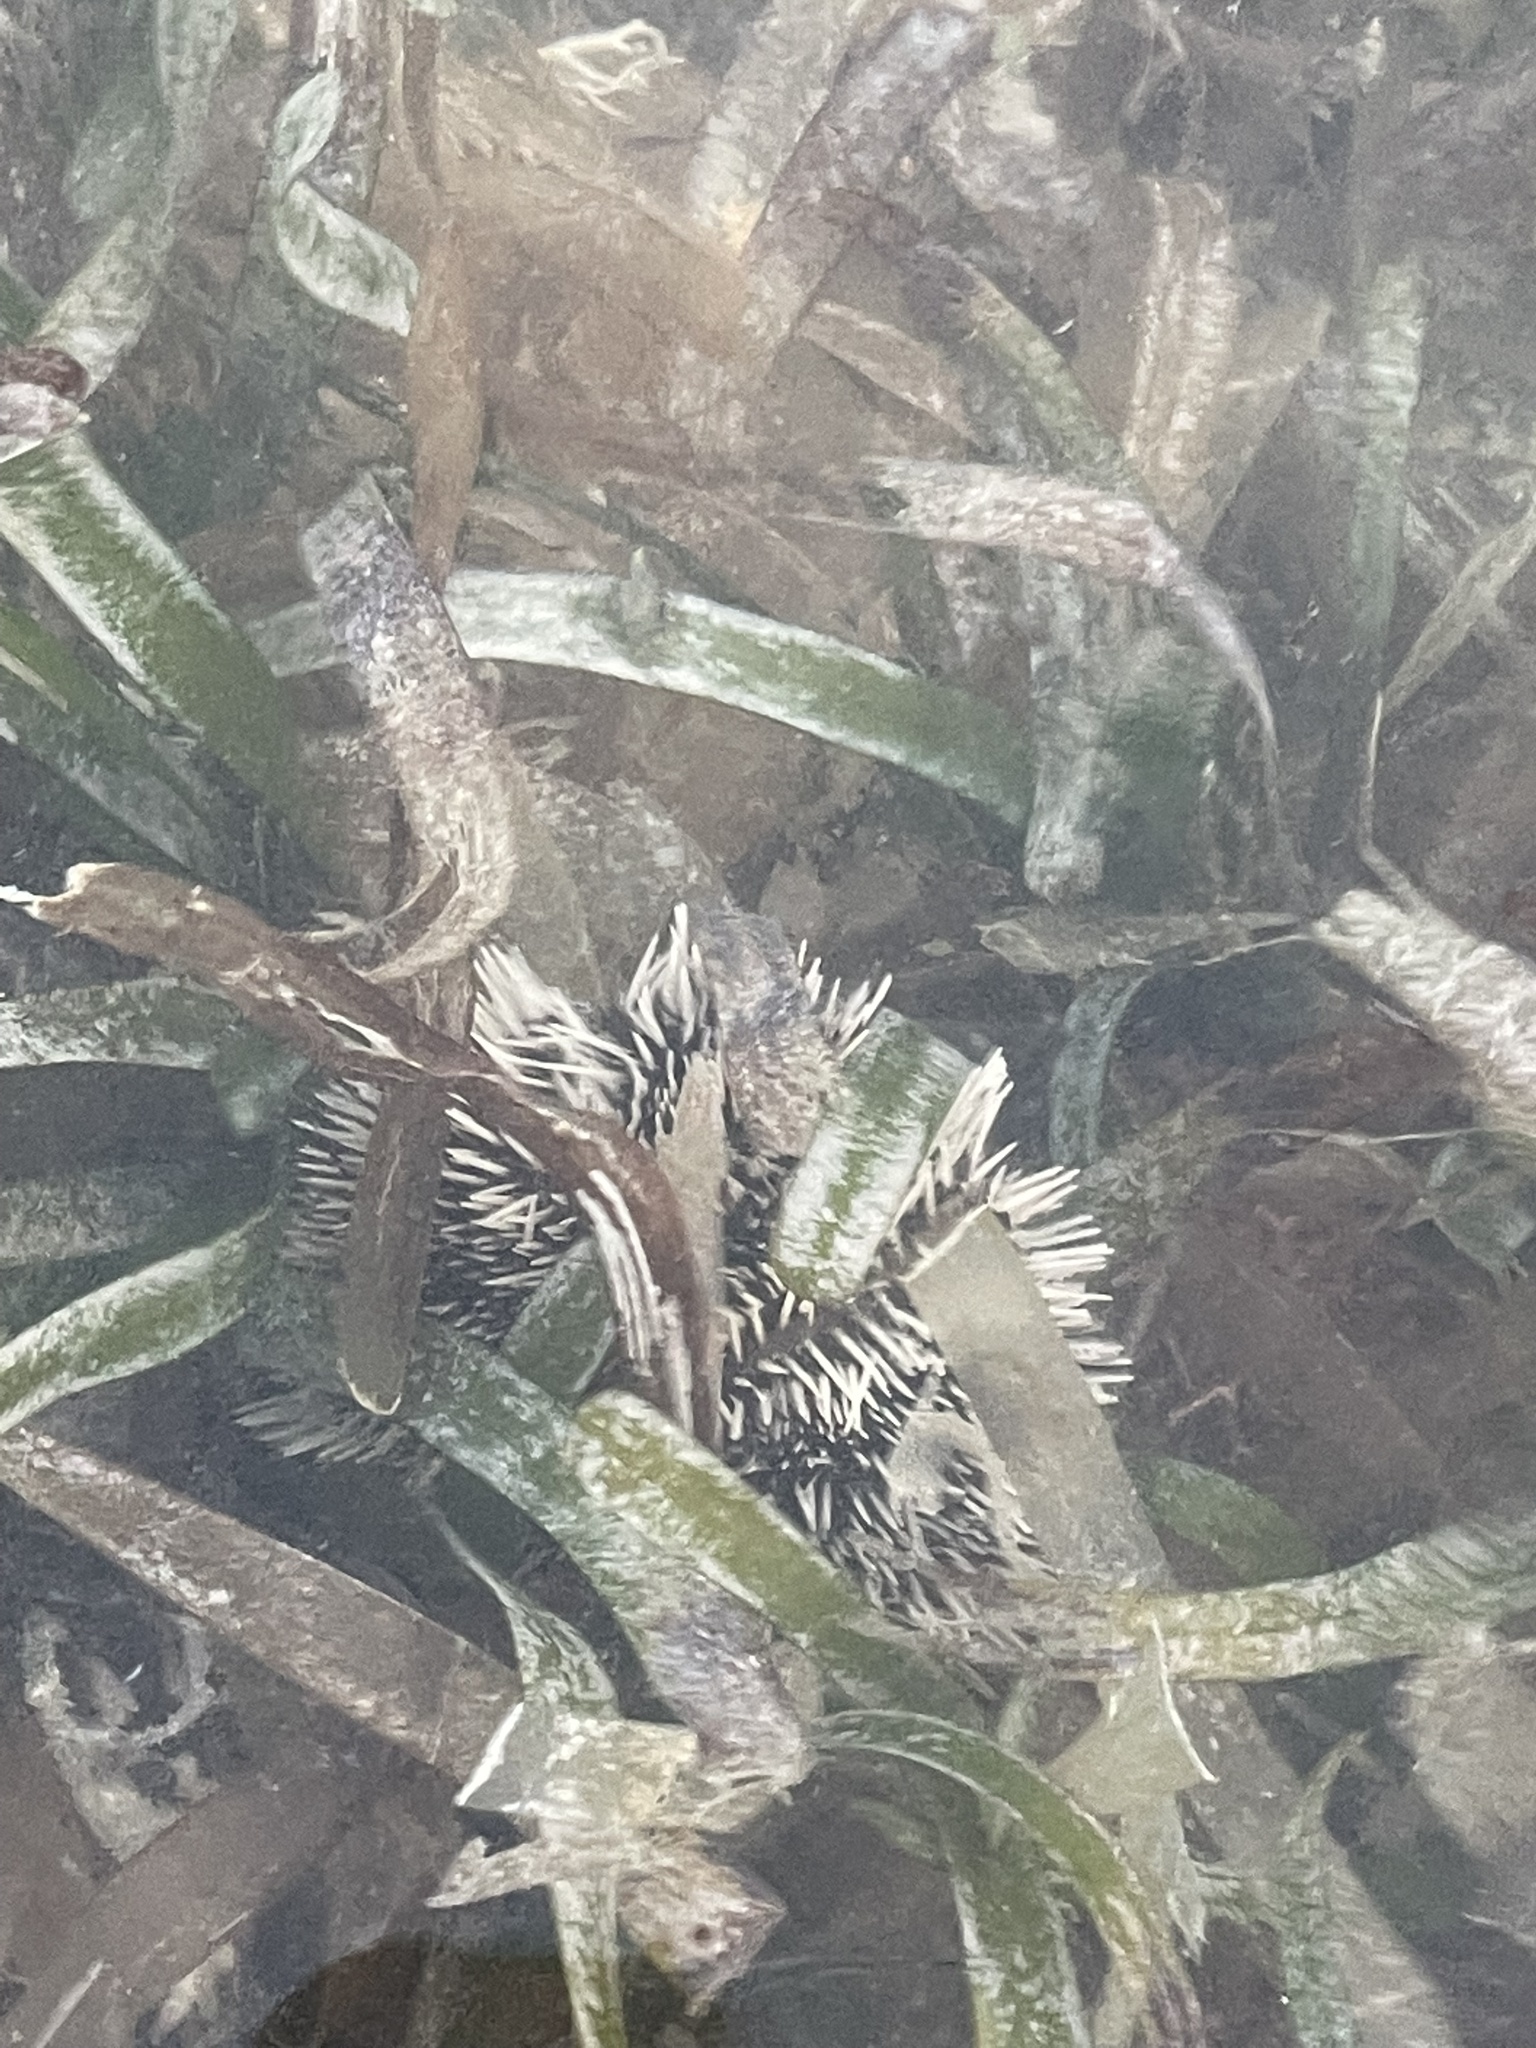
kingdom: Plantae
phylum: Tracheophyta
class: Liliopsida
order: Alismatales
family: Hydrocharitaceae
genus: Thalassia
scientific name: Thalassia testudinum
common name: Species code: tt
